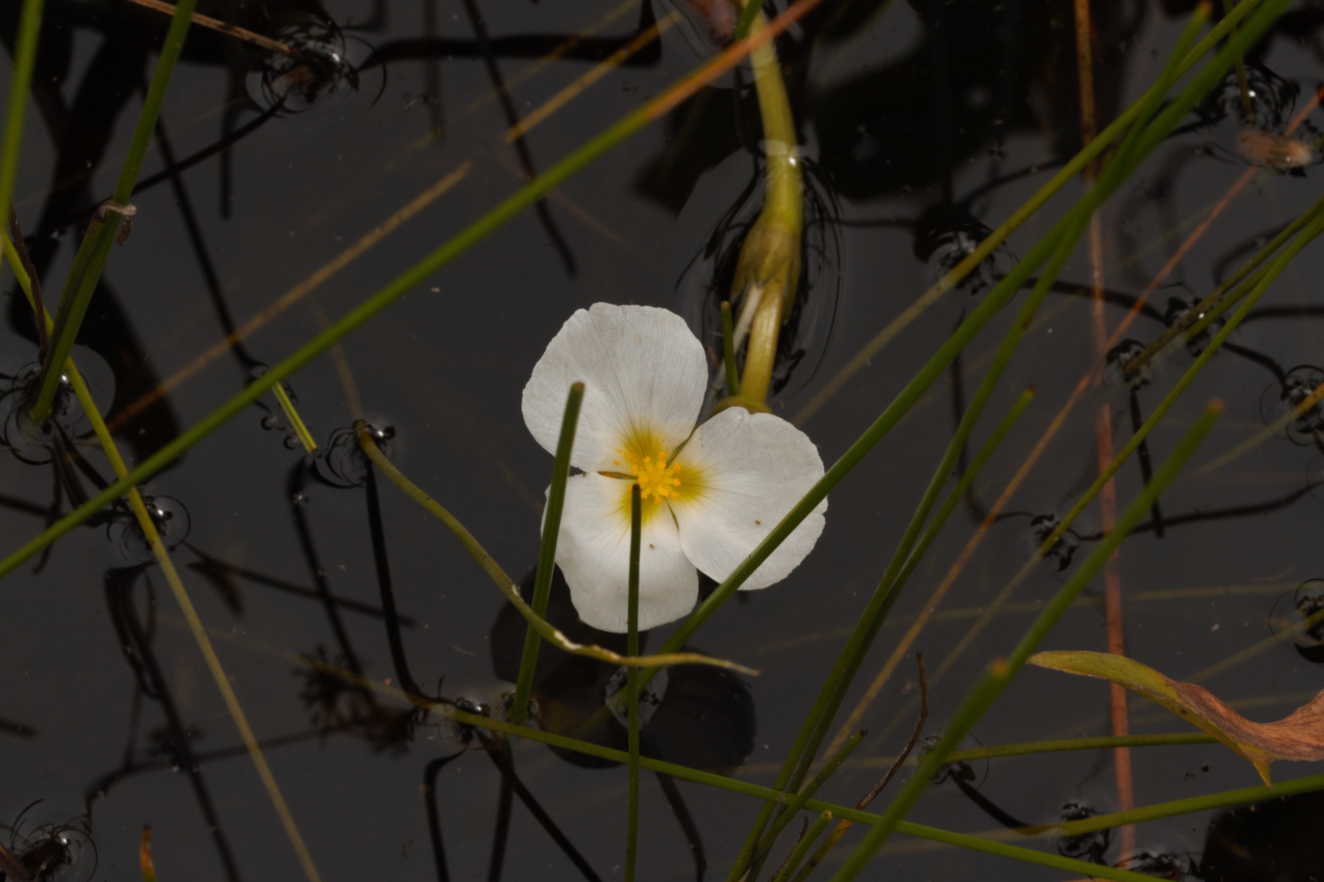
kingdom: Plantae
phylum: Tracheophyta
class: Liliopsida
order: Alismatales
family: Alismataceae
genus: Sagittaria
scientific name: Sagittaria rhombifolia
